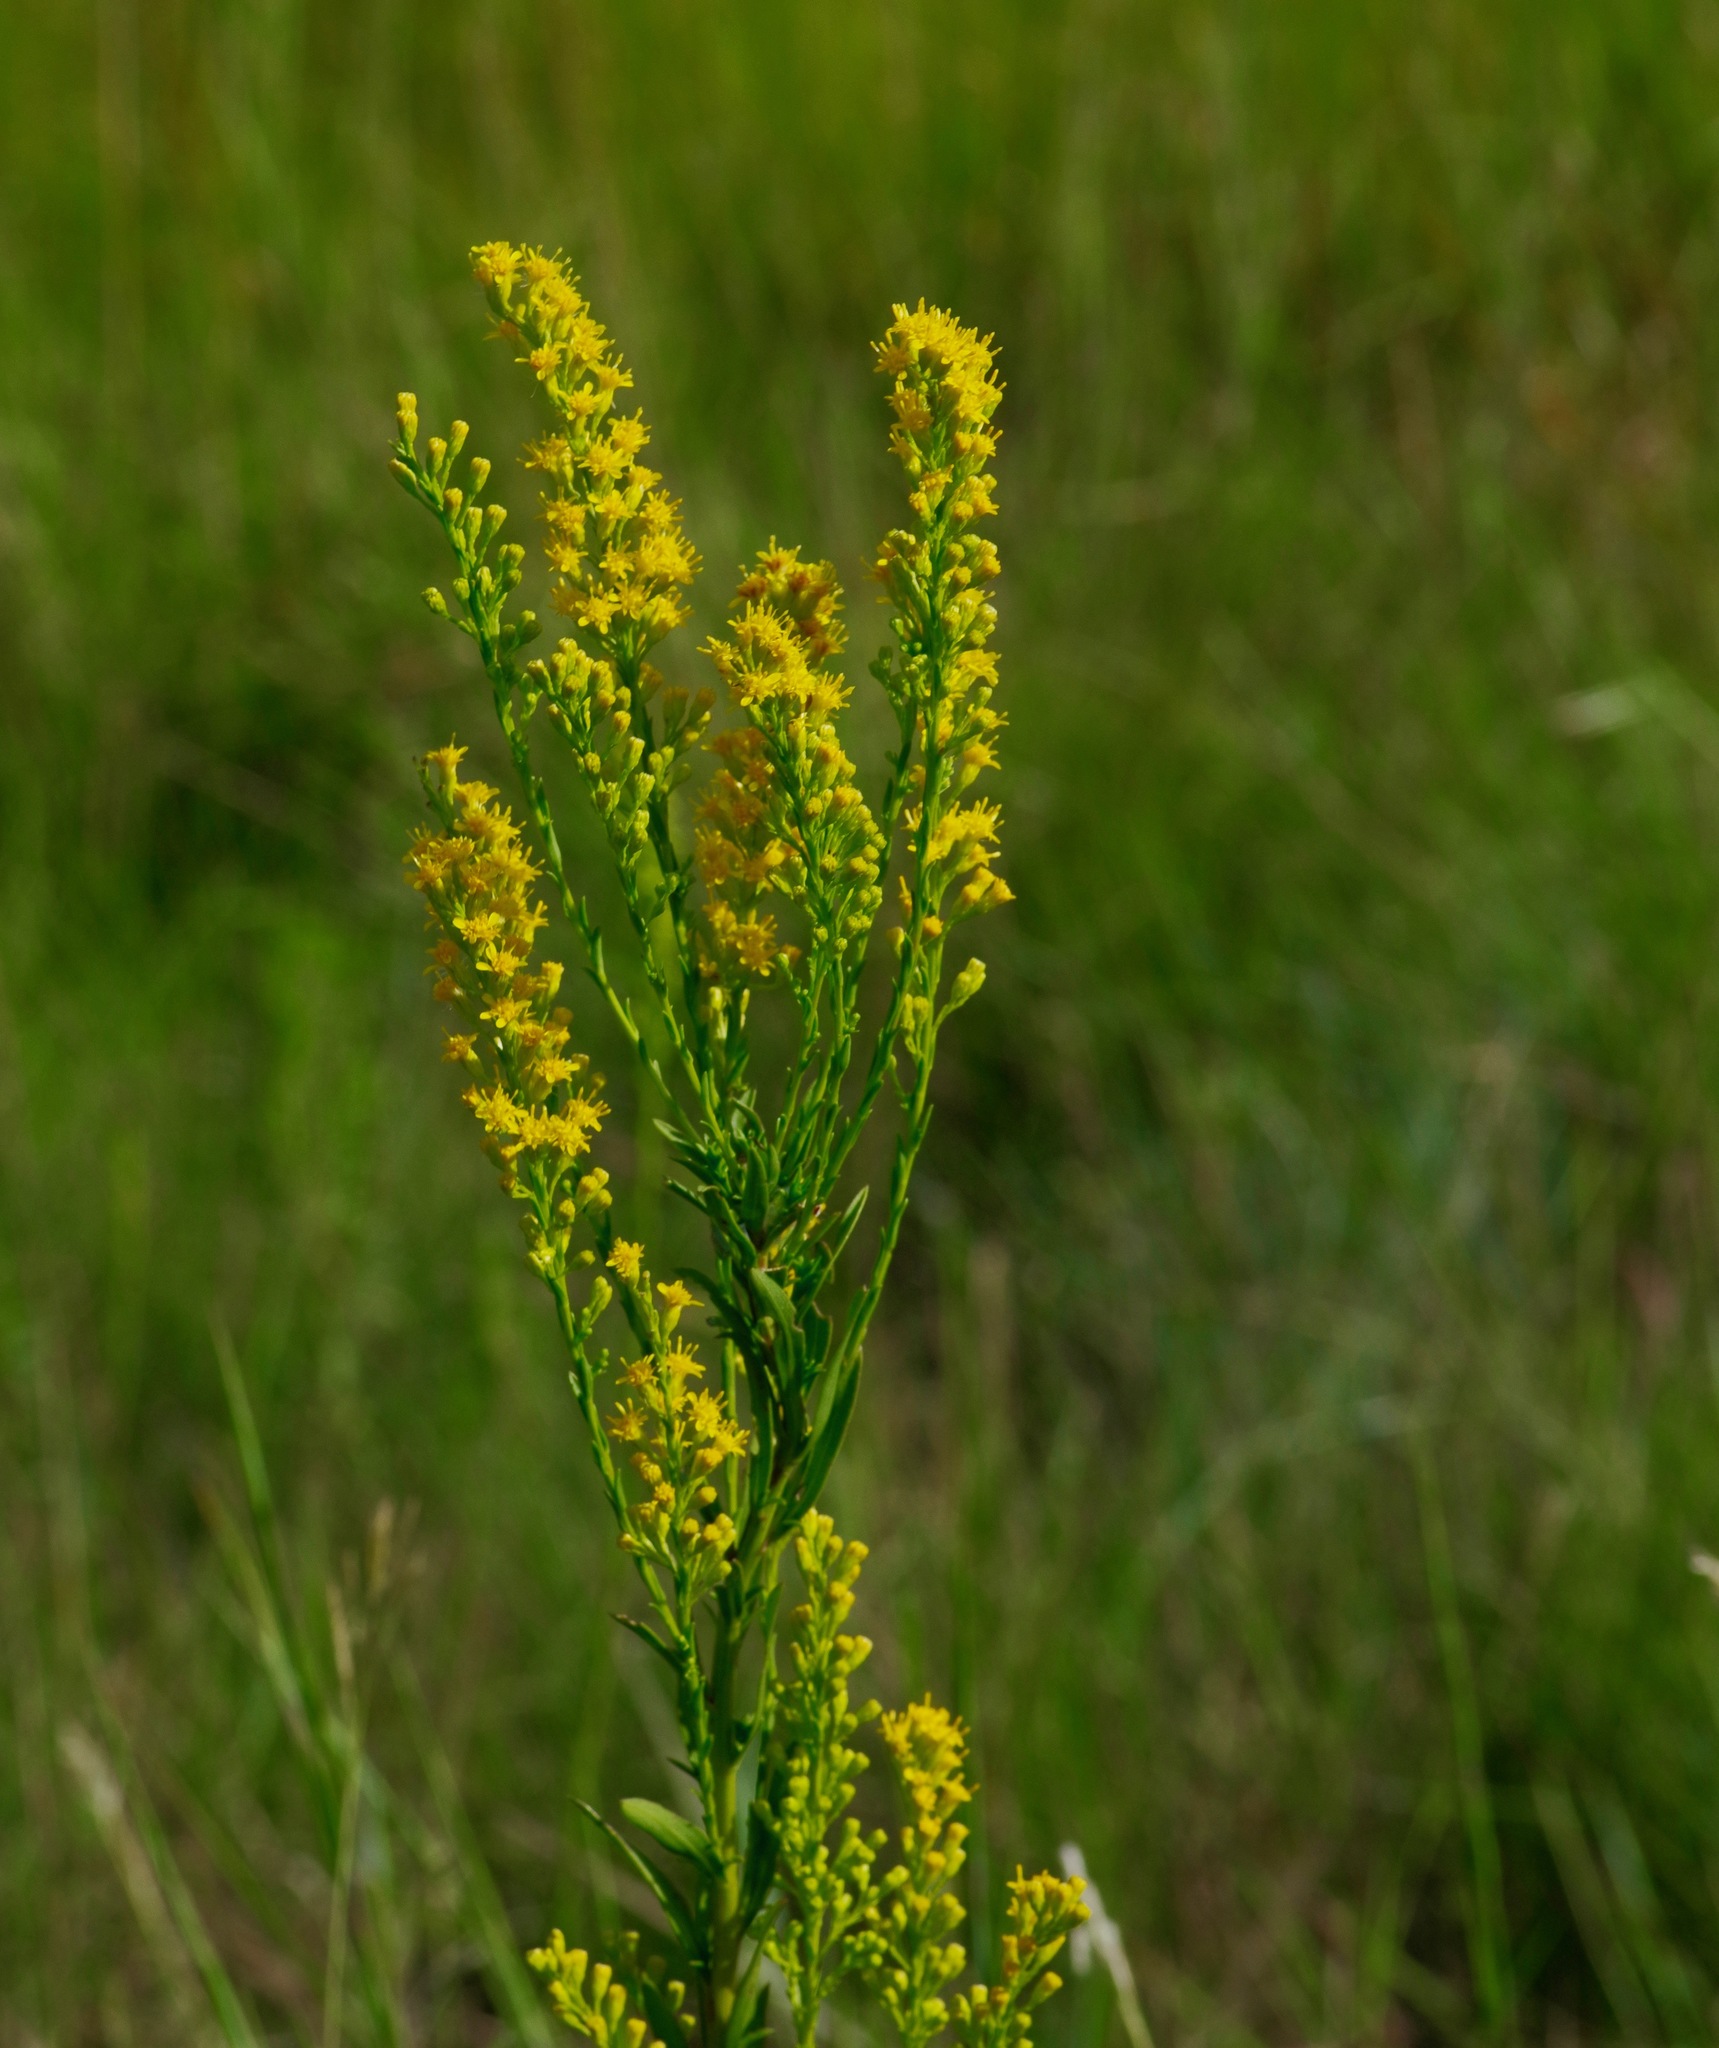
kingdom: Plantae
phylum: Tracheophyta
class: Magnoliopsida
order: Asterales
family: Asteraceae
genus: Solidago
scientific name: Solidago mexicana
